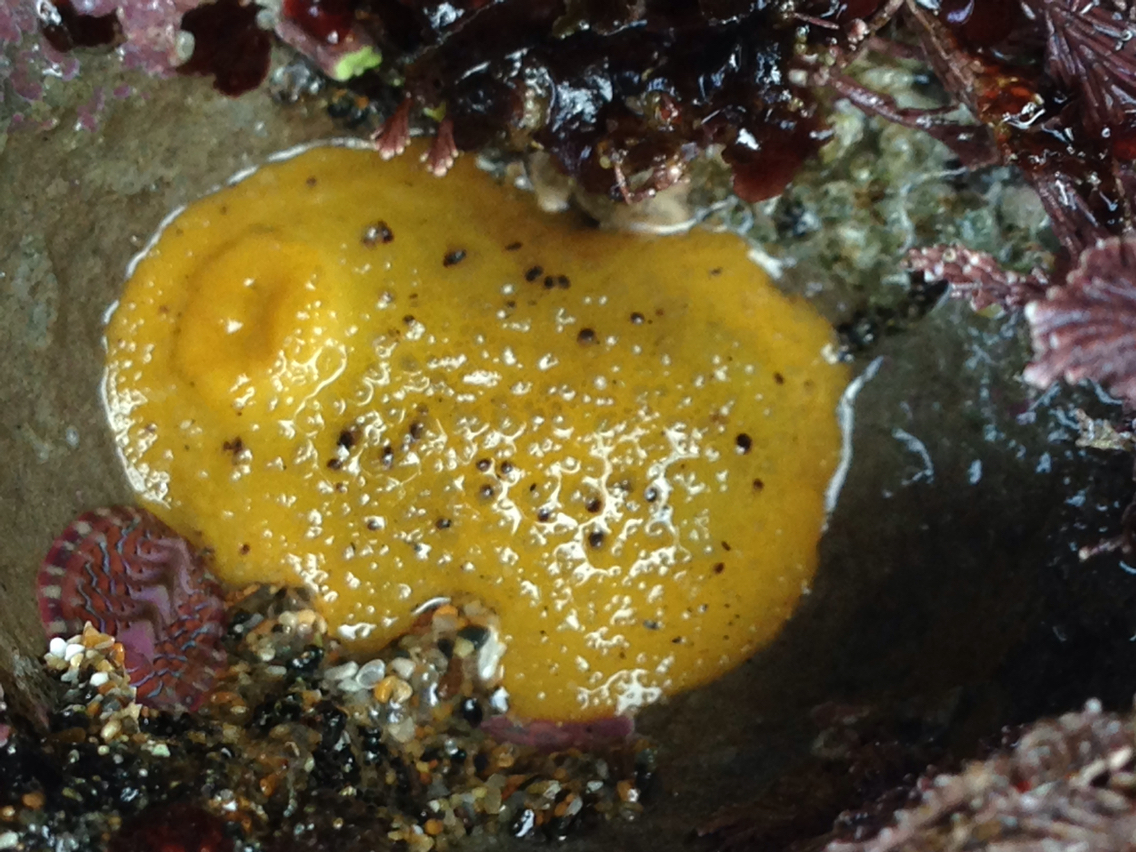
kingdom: Animalia
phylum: Mollusca
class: Gastropoda
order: Nudibranchia
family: Dorididae
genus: Doris
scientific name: Doris montereyensis
